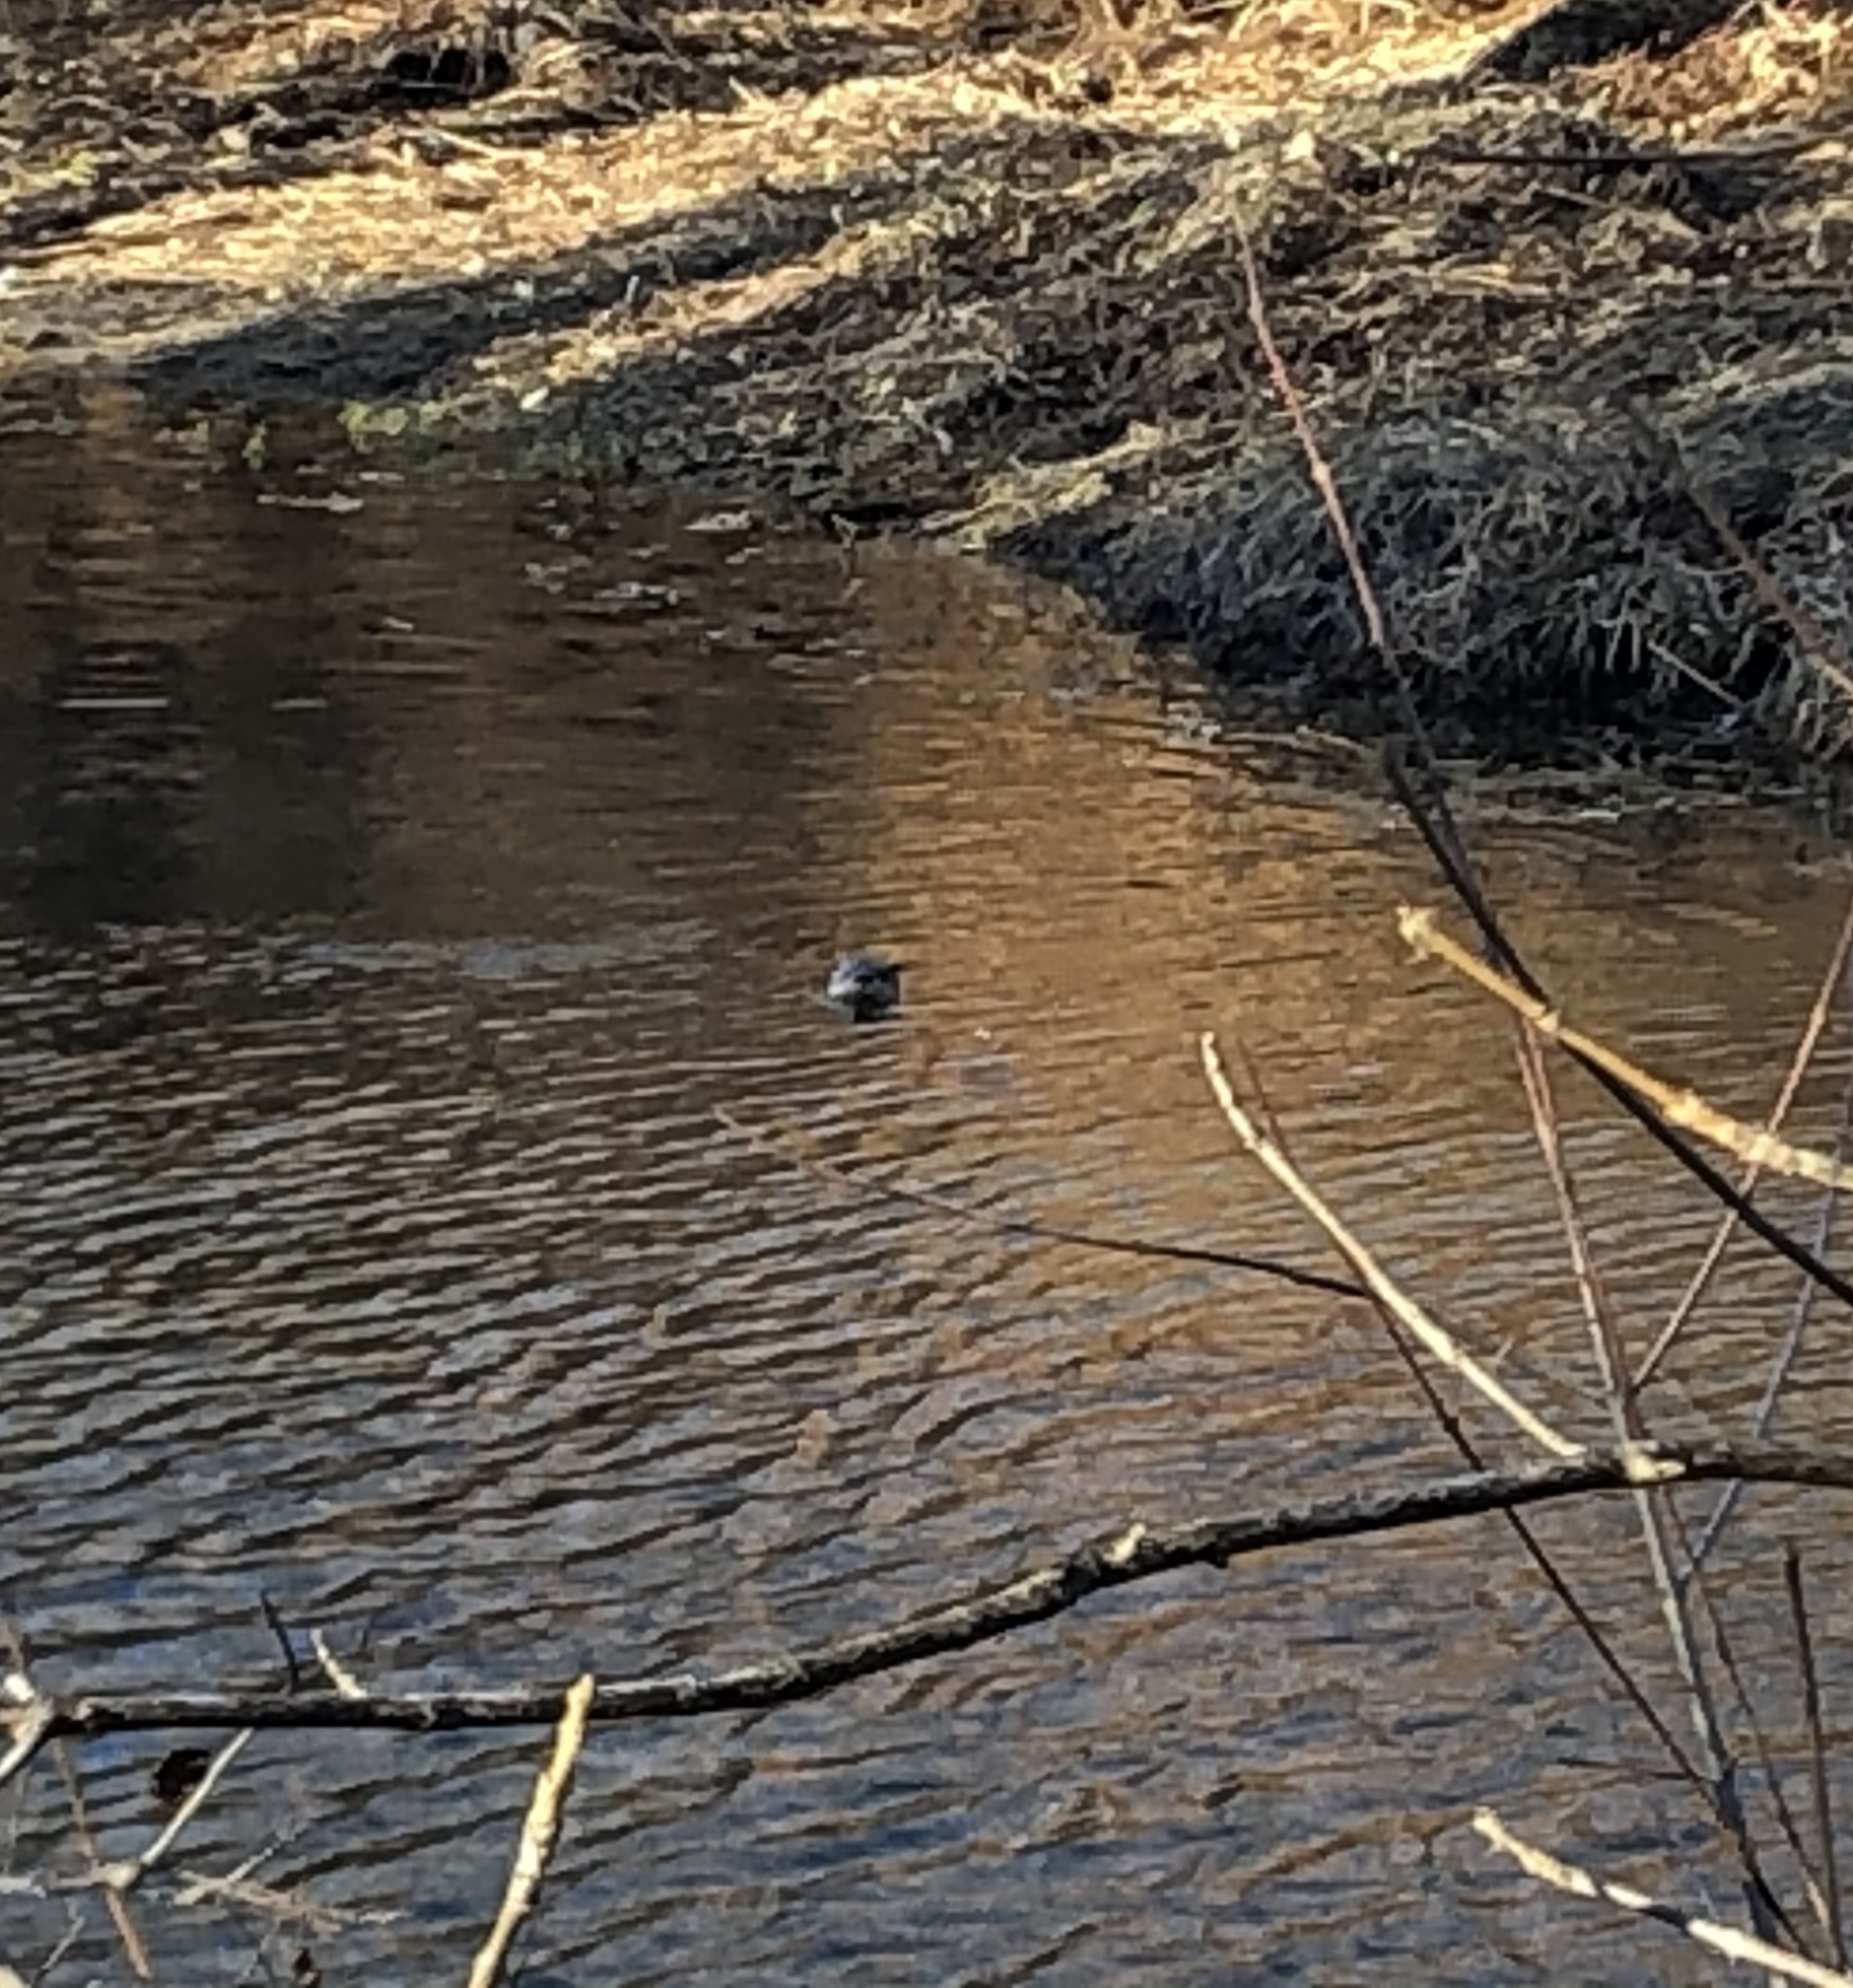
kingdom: Animalia
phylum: Chordata
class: Mammalia
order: Carnivora
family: Mustelidae
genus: Lontra
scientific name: Lontra canadensis
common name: North american river otter
